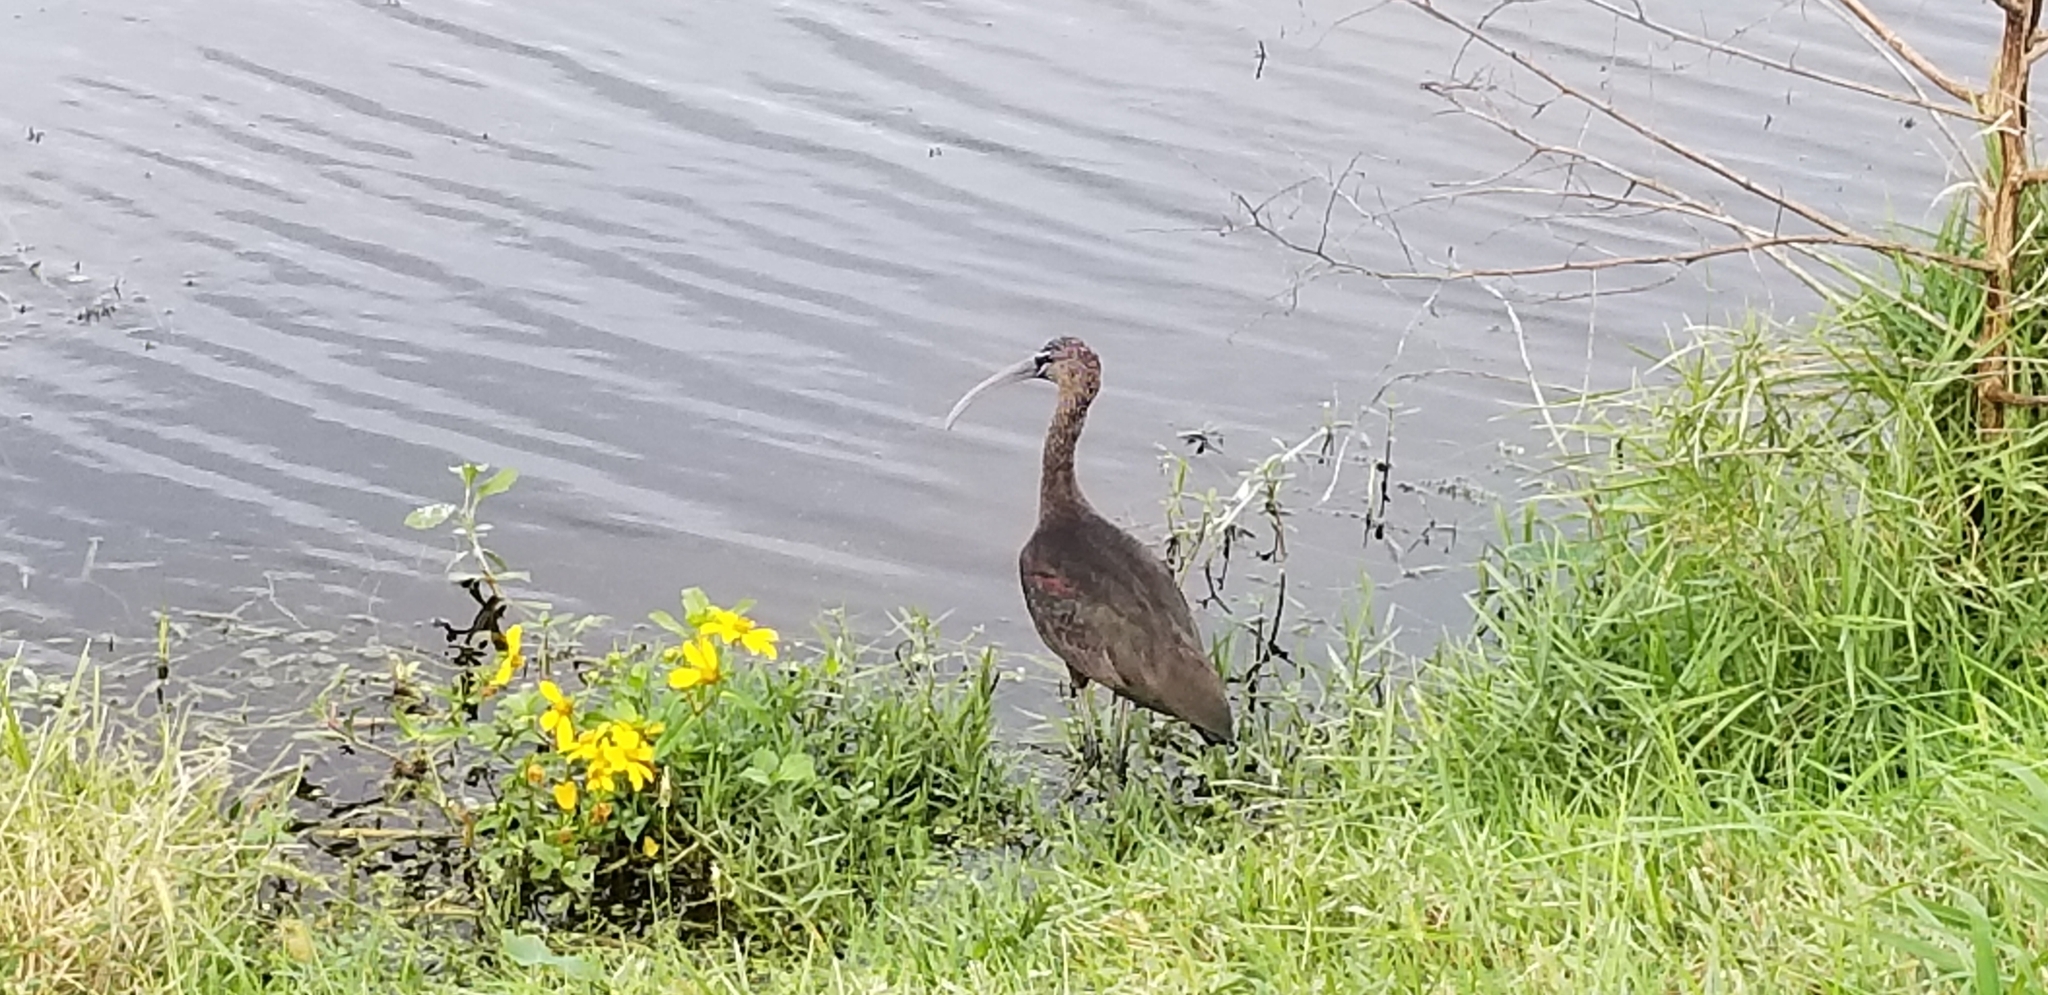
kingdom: Animalia
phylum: Chordata
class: Aves
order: Pelecaniformes
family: Threskiornithidae
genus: Plegadis
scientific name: Plegadis falcinellus
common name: Glossy ibis
